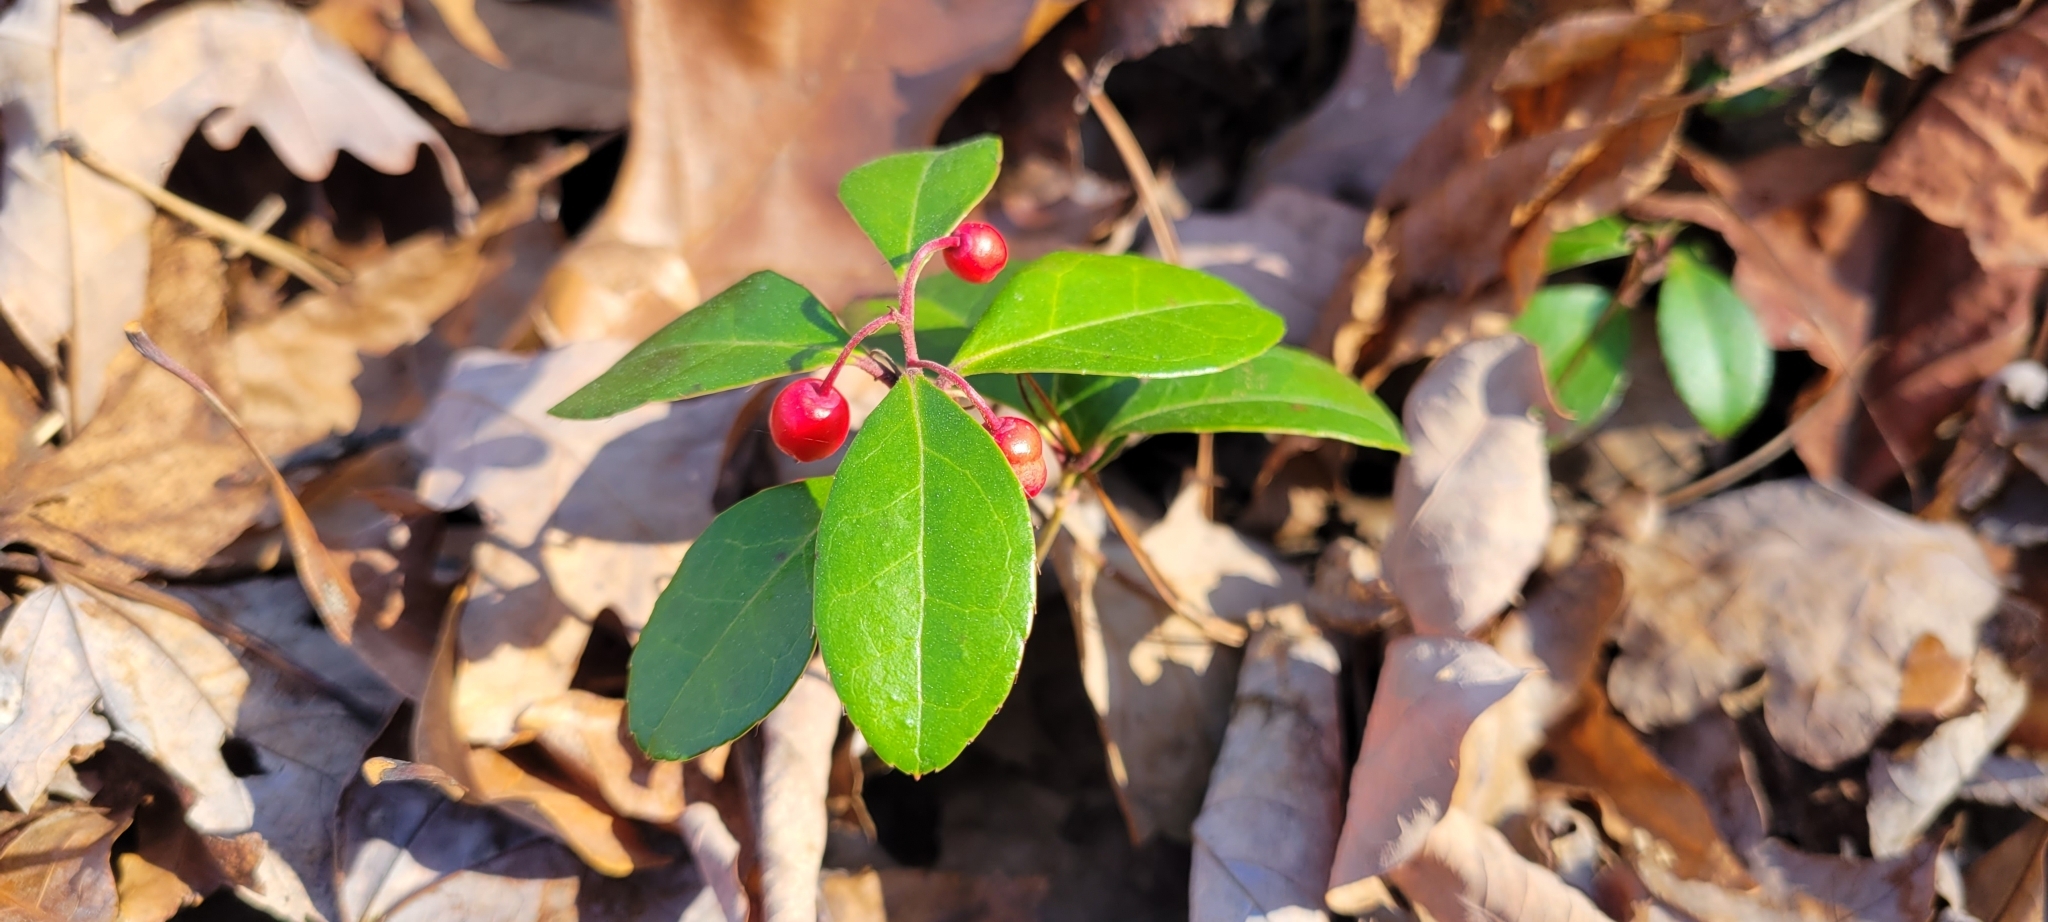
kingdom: Plantae
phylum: Tracheophyta
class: Magnoliopsida
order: Ericales
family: Ericaceae
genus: Gaultheria
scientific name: Gaultheria procumbens
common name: Checkerberry
